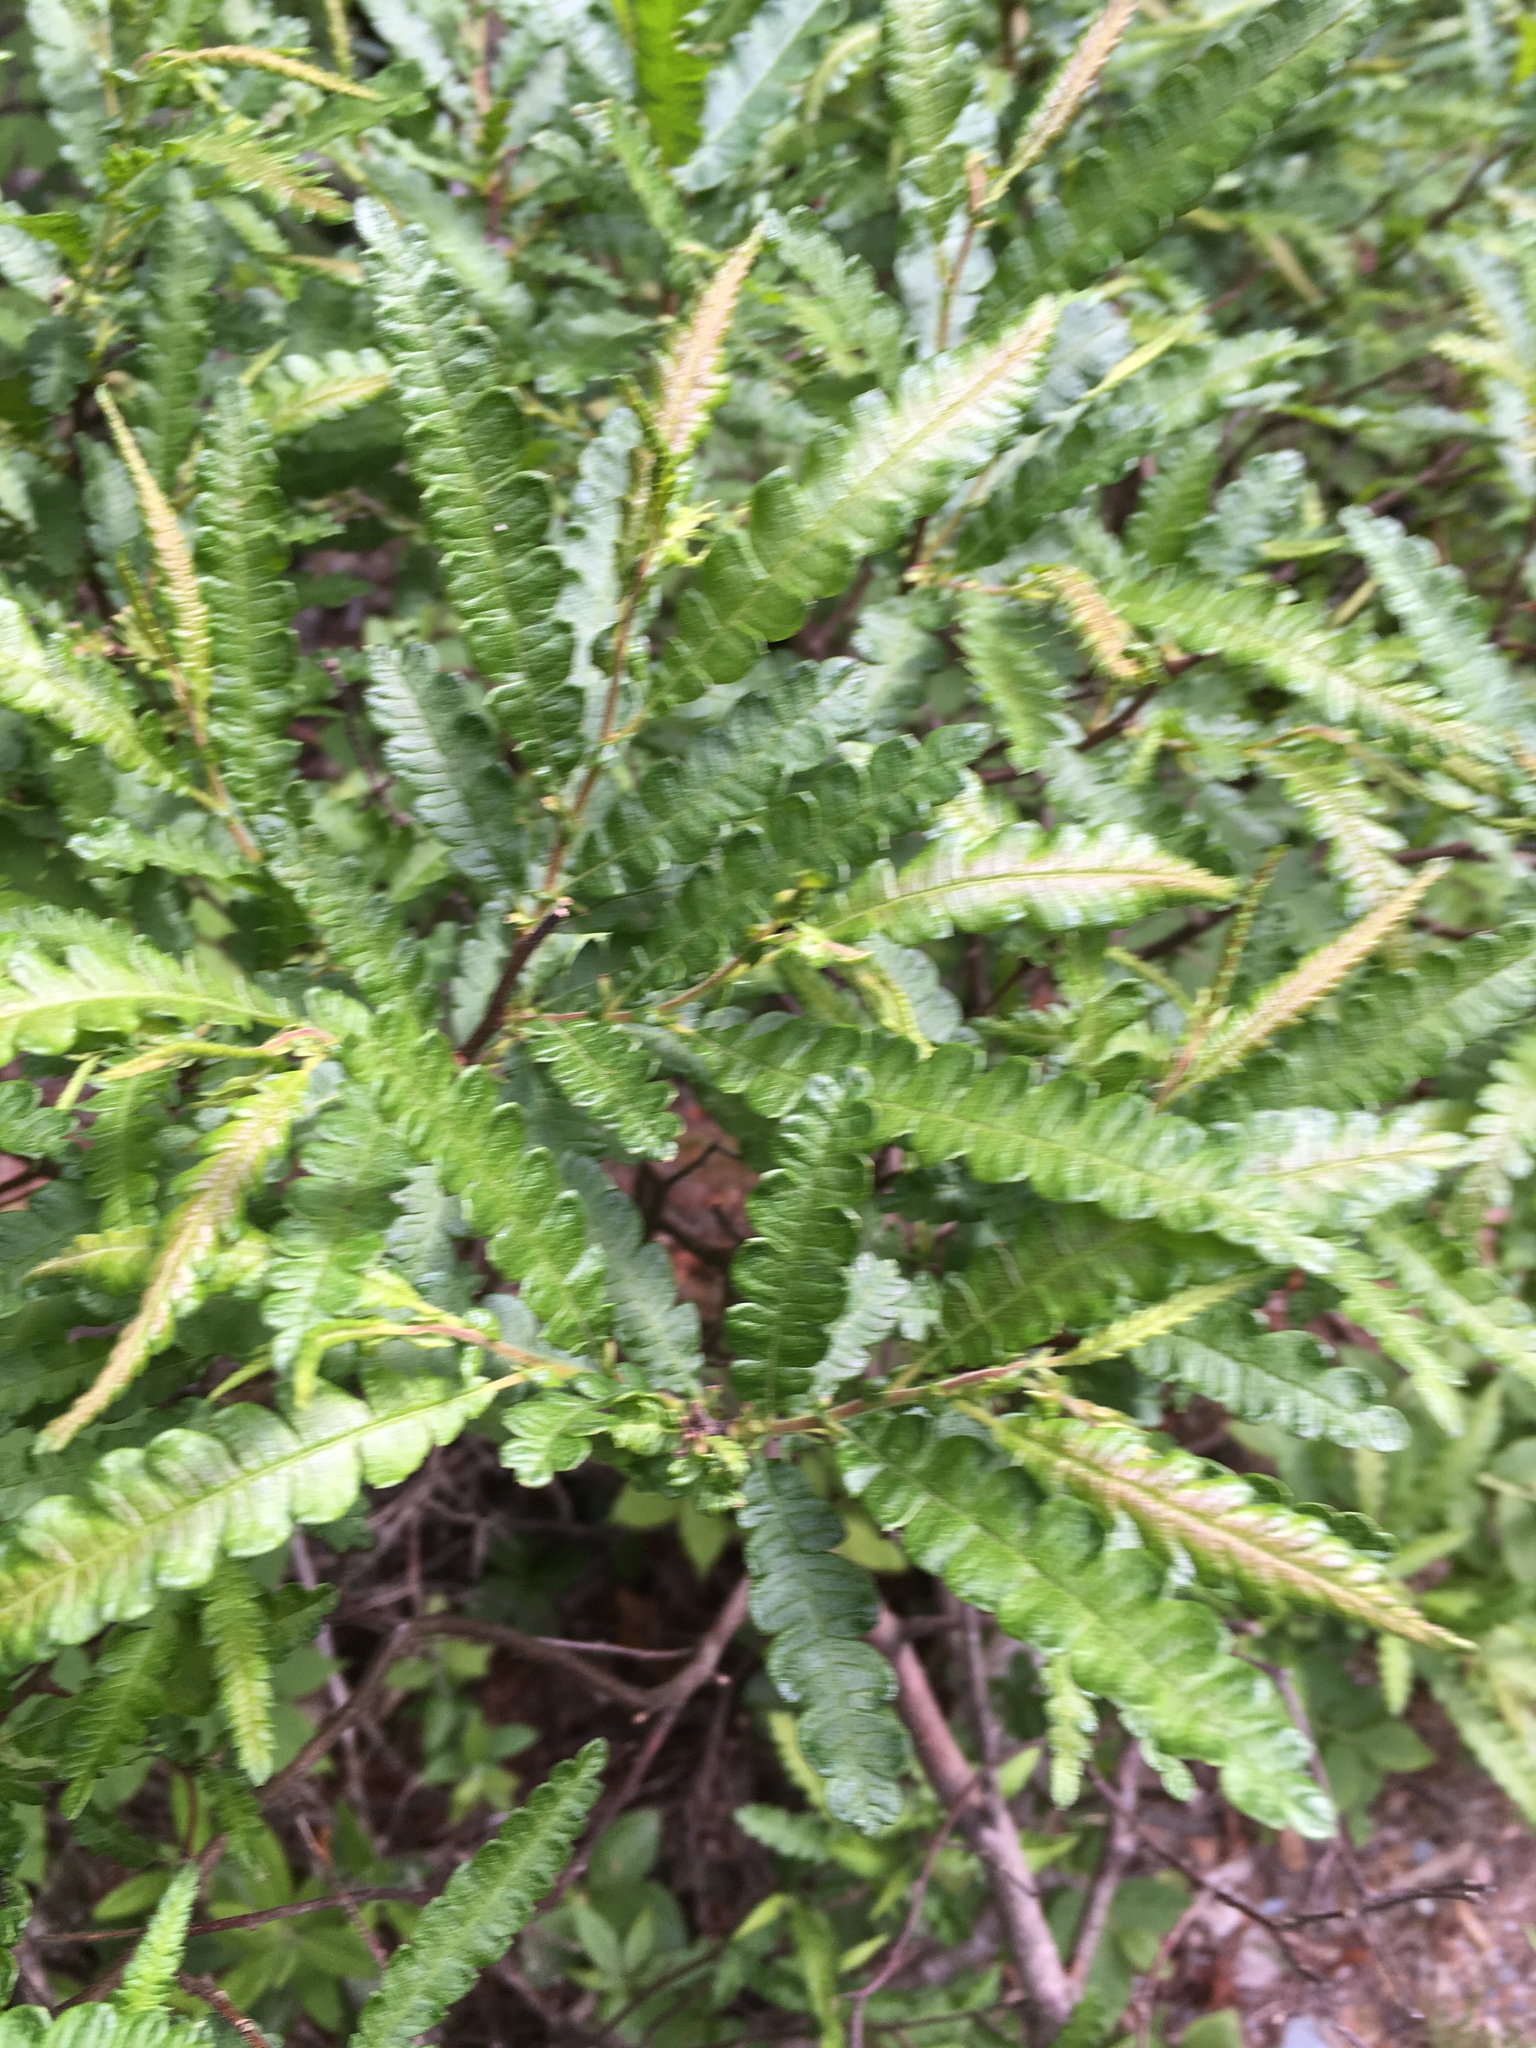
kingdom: Plantae
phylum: Tracheophyta
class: Magnoliopsida
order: Fagales
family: Myricaceae
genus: Comptonia
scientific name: Comptonia peregrina
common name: Sweet-fern
